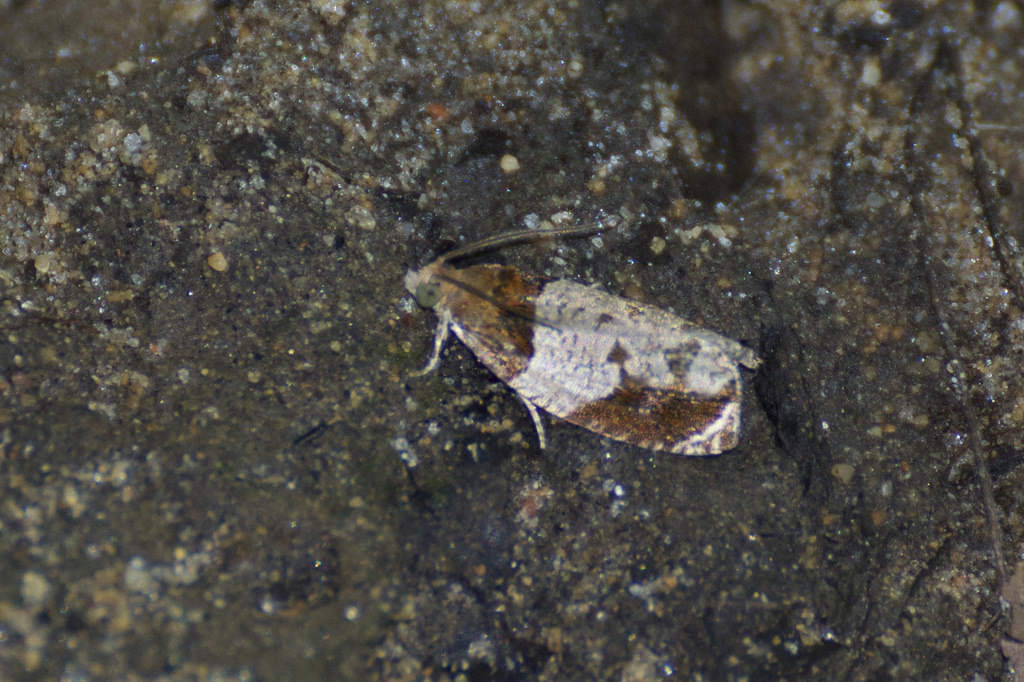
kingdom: Animalia
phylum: Arthropoda
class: Insecta
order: Lepidoptera
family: Tortricidae
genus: Olethreutes
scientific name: Olethreutes ferriferana
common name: Hydrangea leaftier moth
